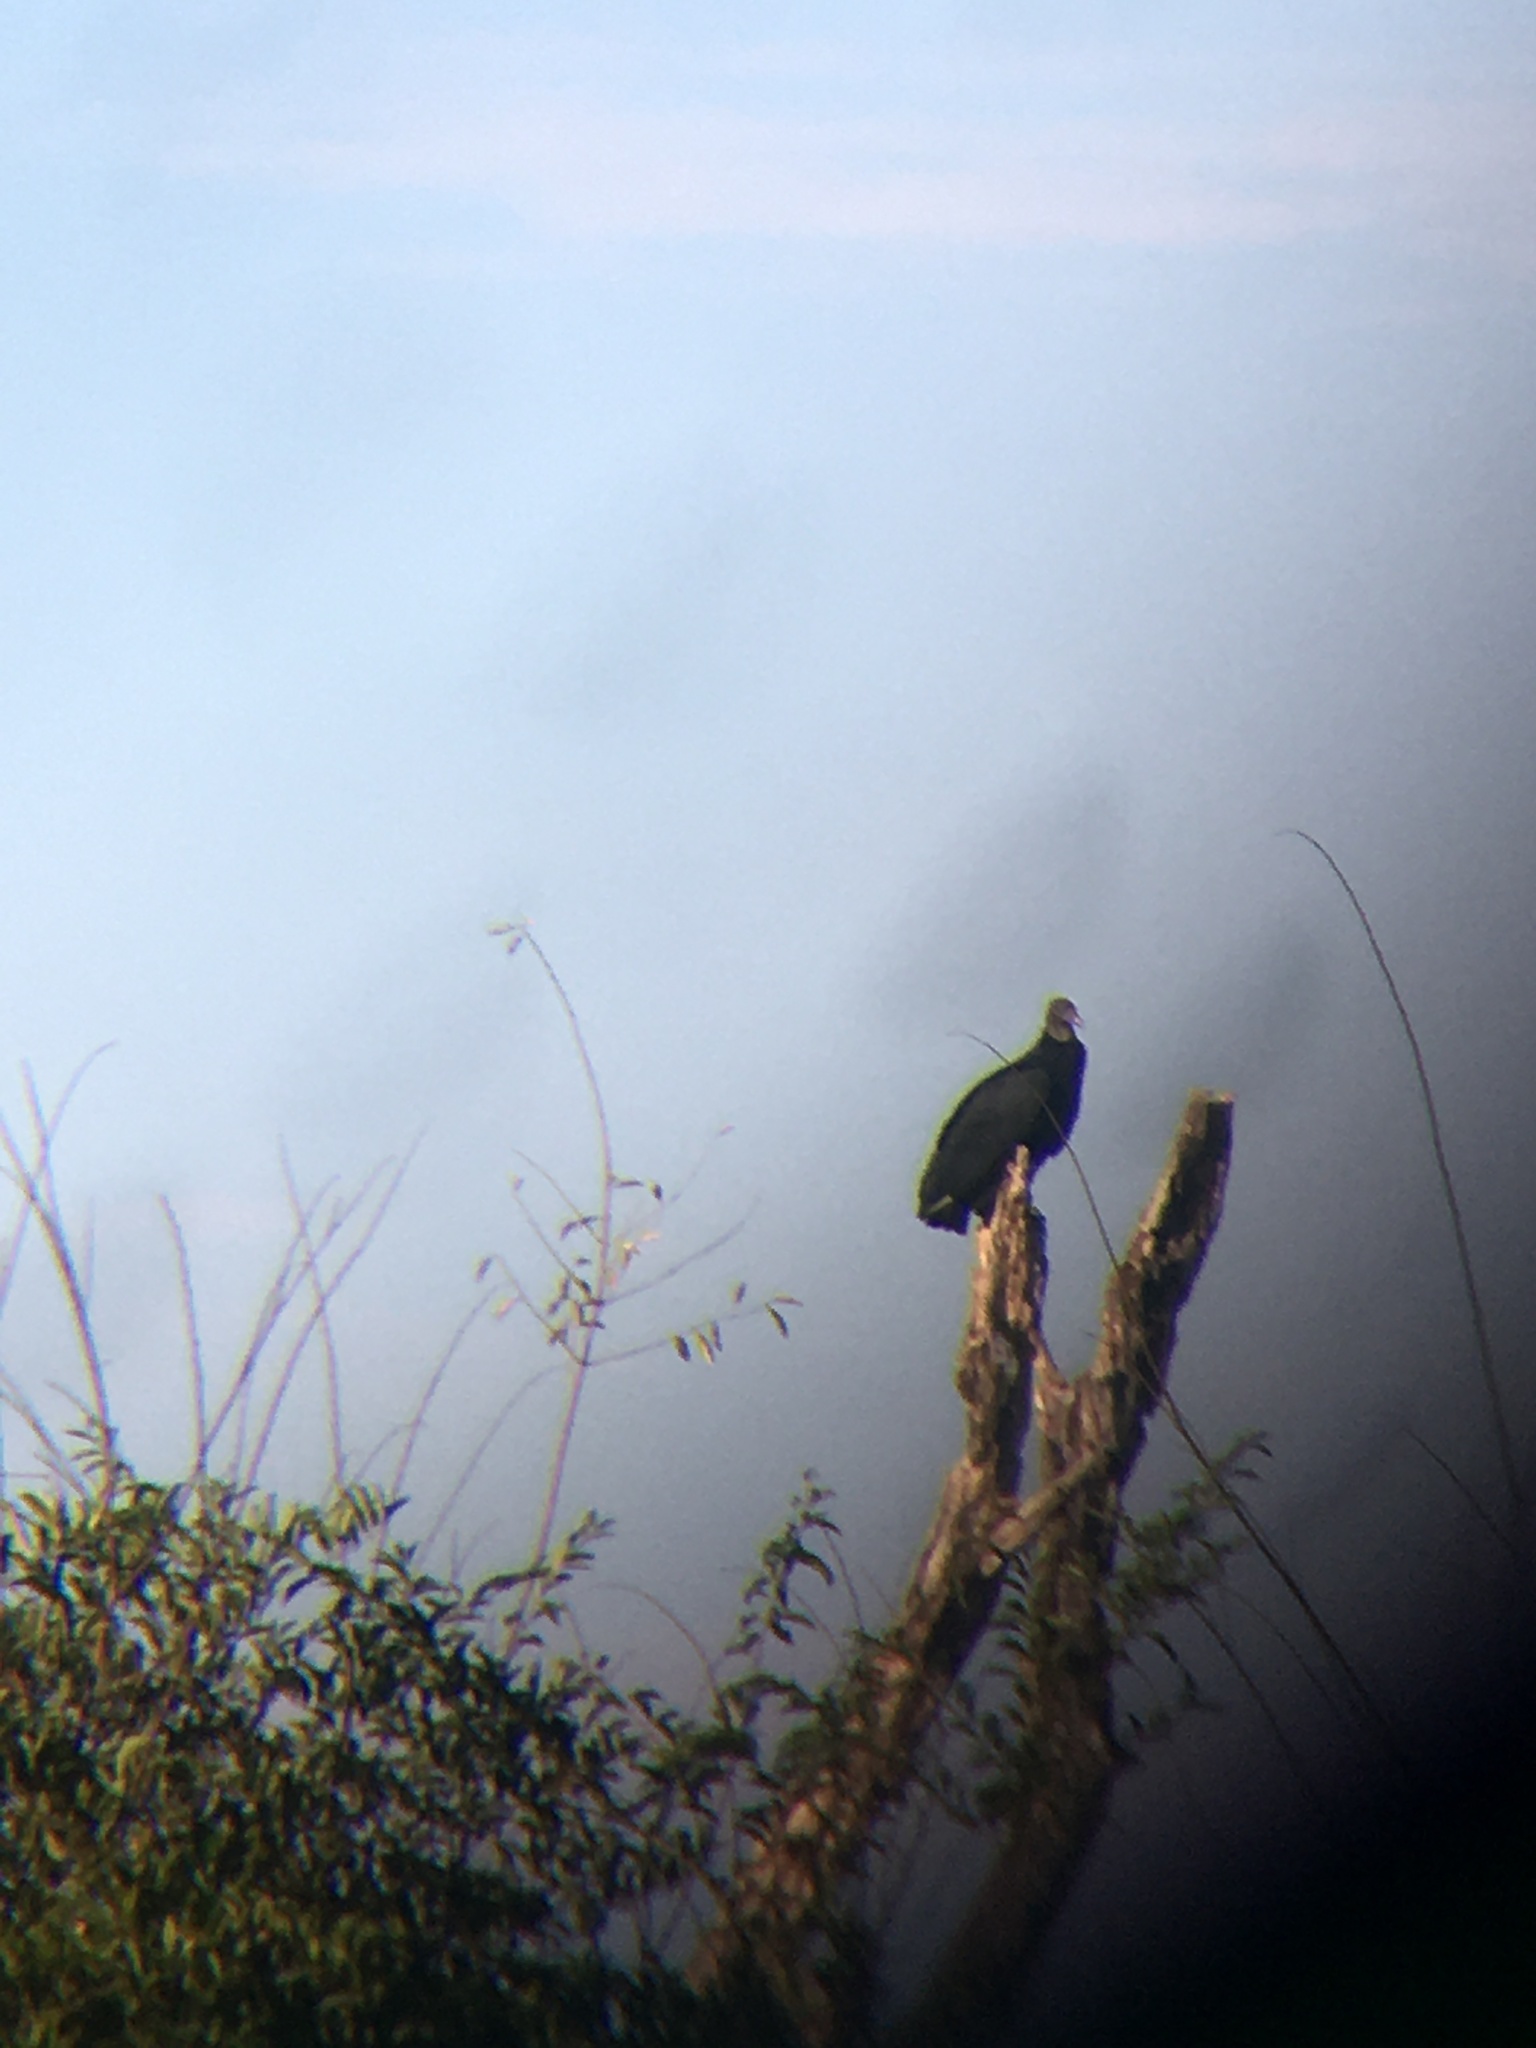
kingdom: Animalia
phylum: Chordata
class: Aves
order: Accipitriformes
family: Cathartidae
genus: Coragyps
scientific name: Coragyps atratus
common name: Black vulture
